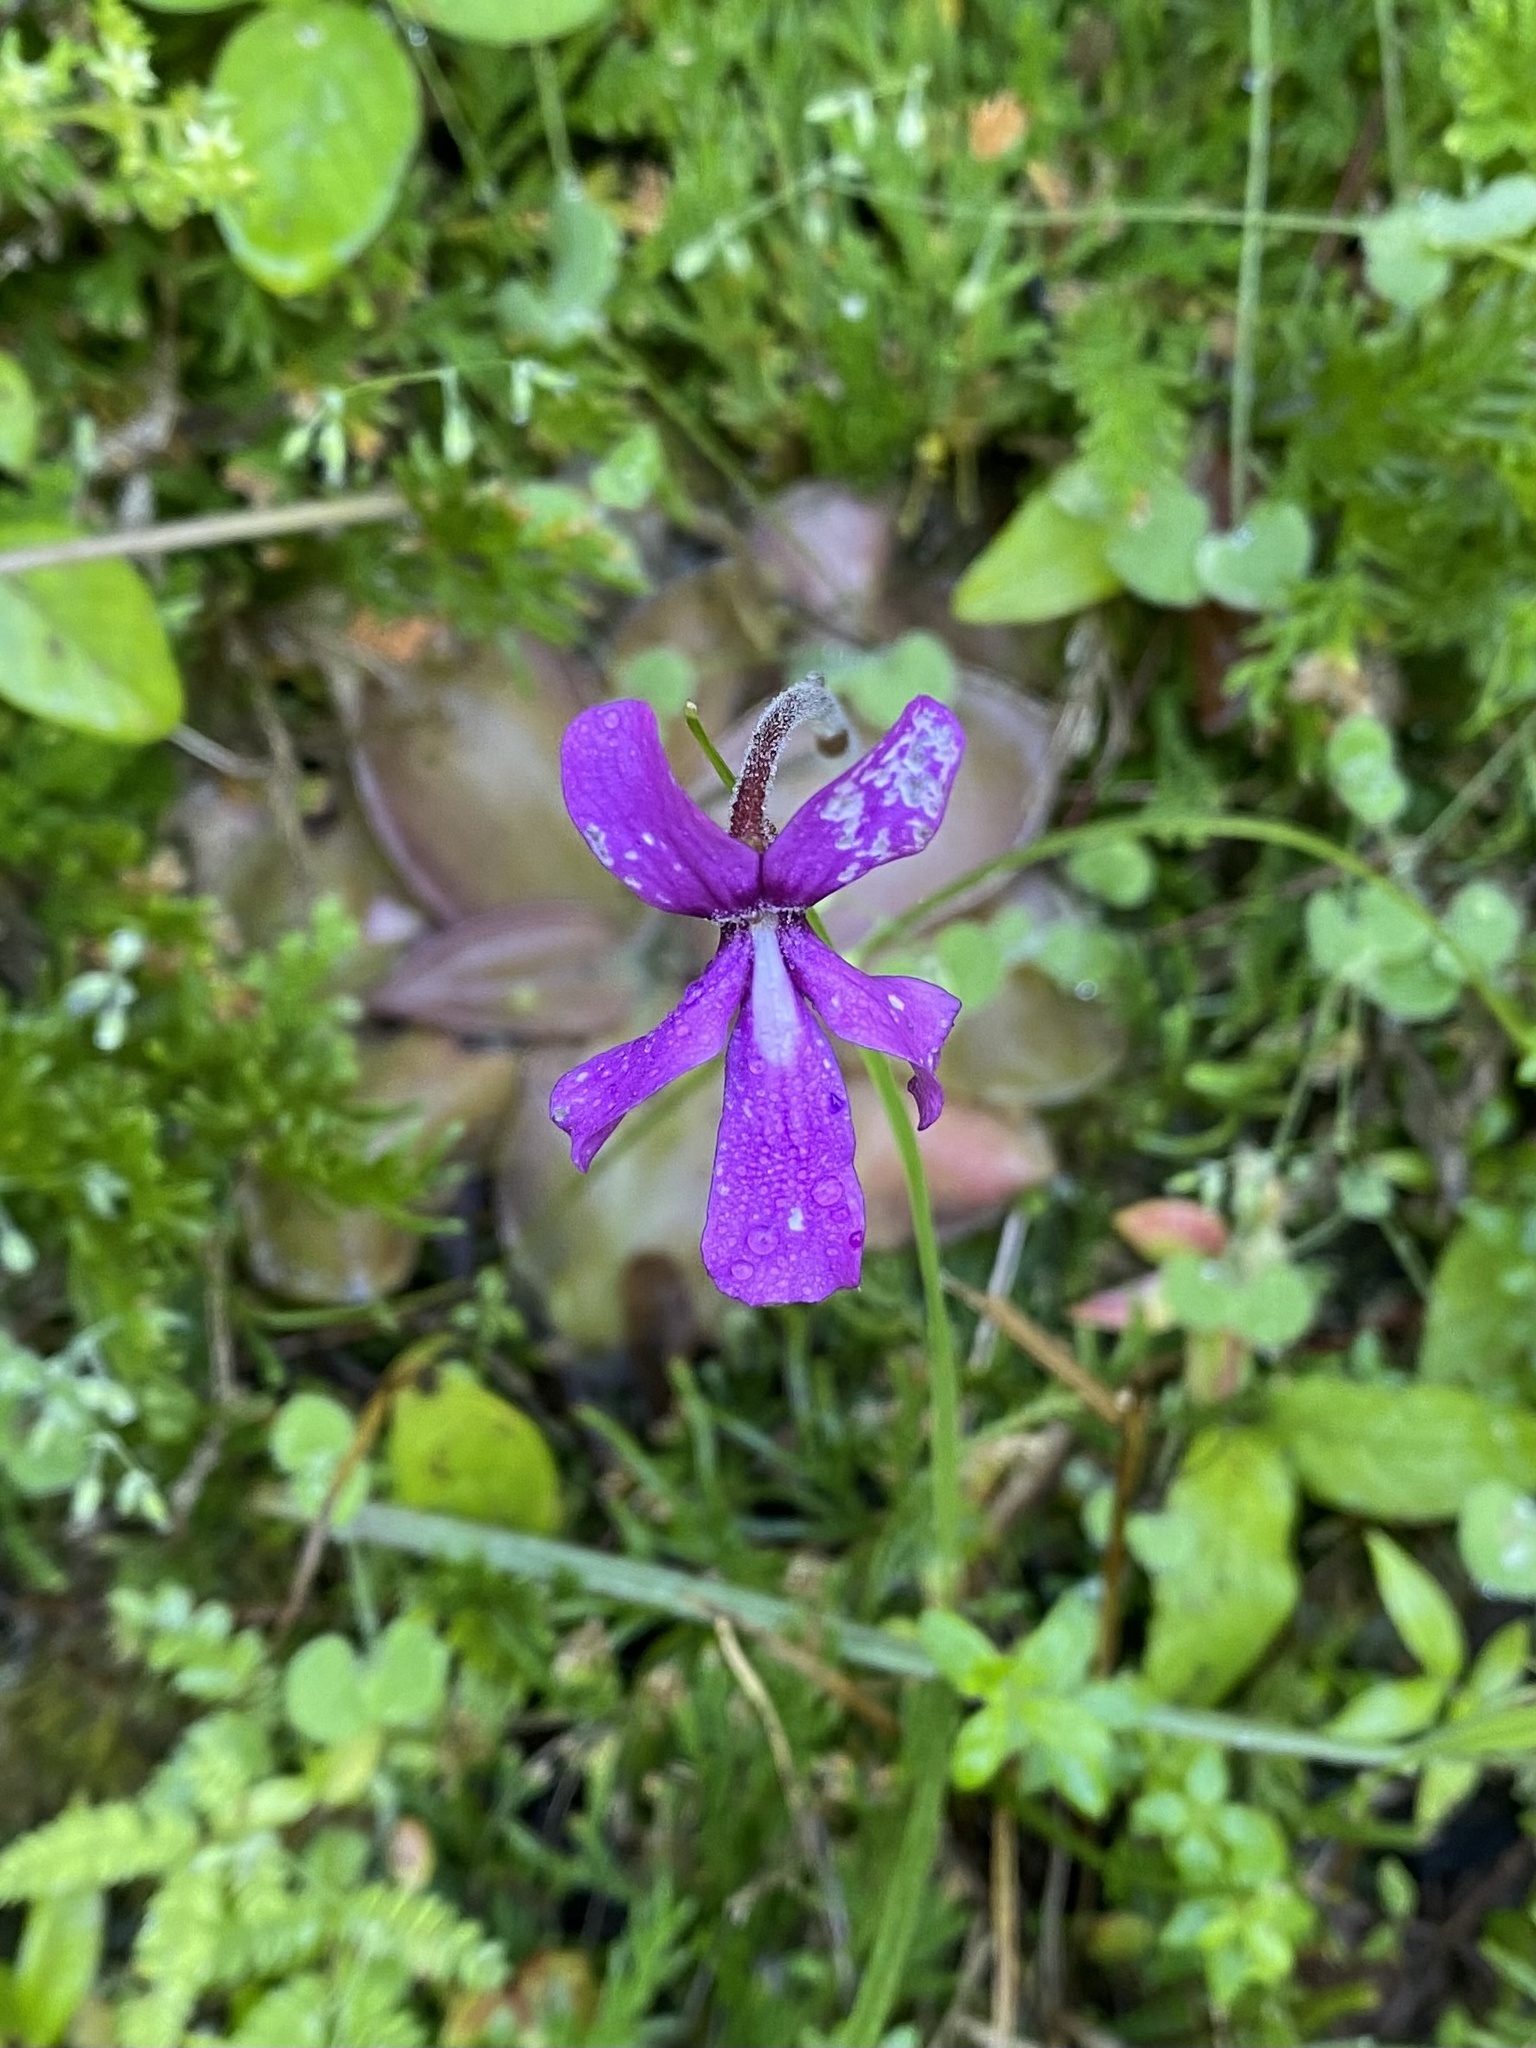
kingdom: Plantae
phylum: Tracheophyta
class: Magnoliopsida
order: Lamiales
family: Lentibulariaceae
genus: Pinguicula
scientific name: Pinguicula moranensis
